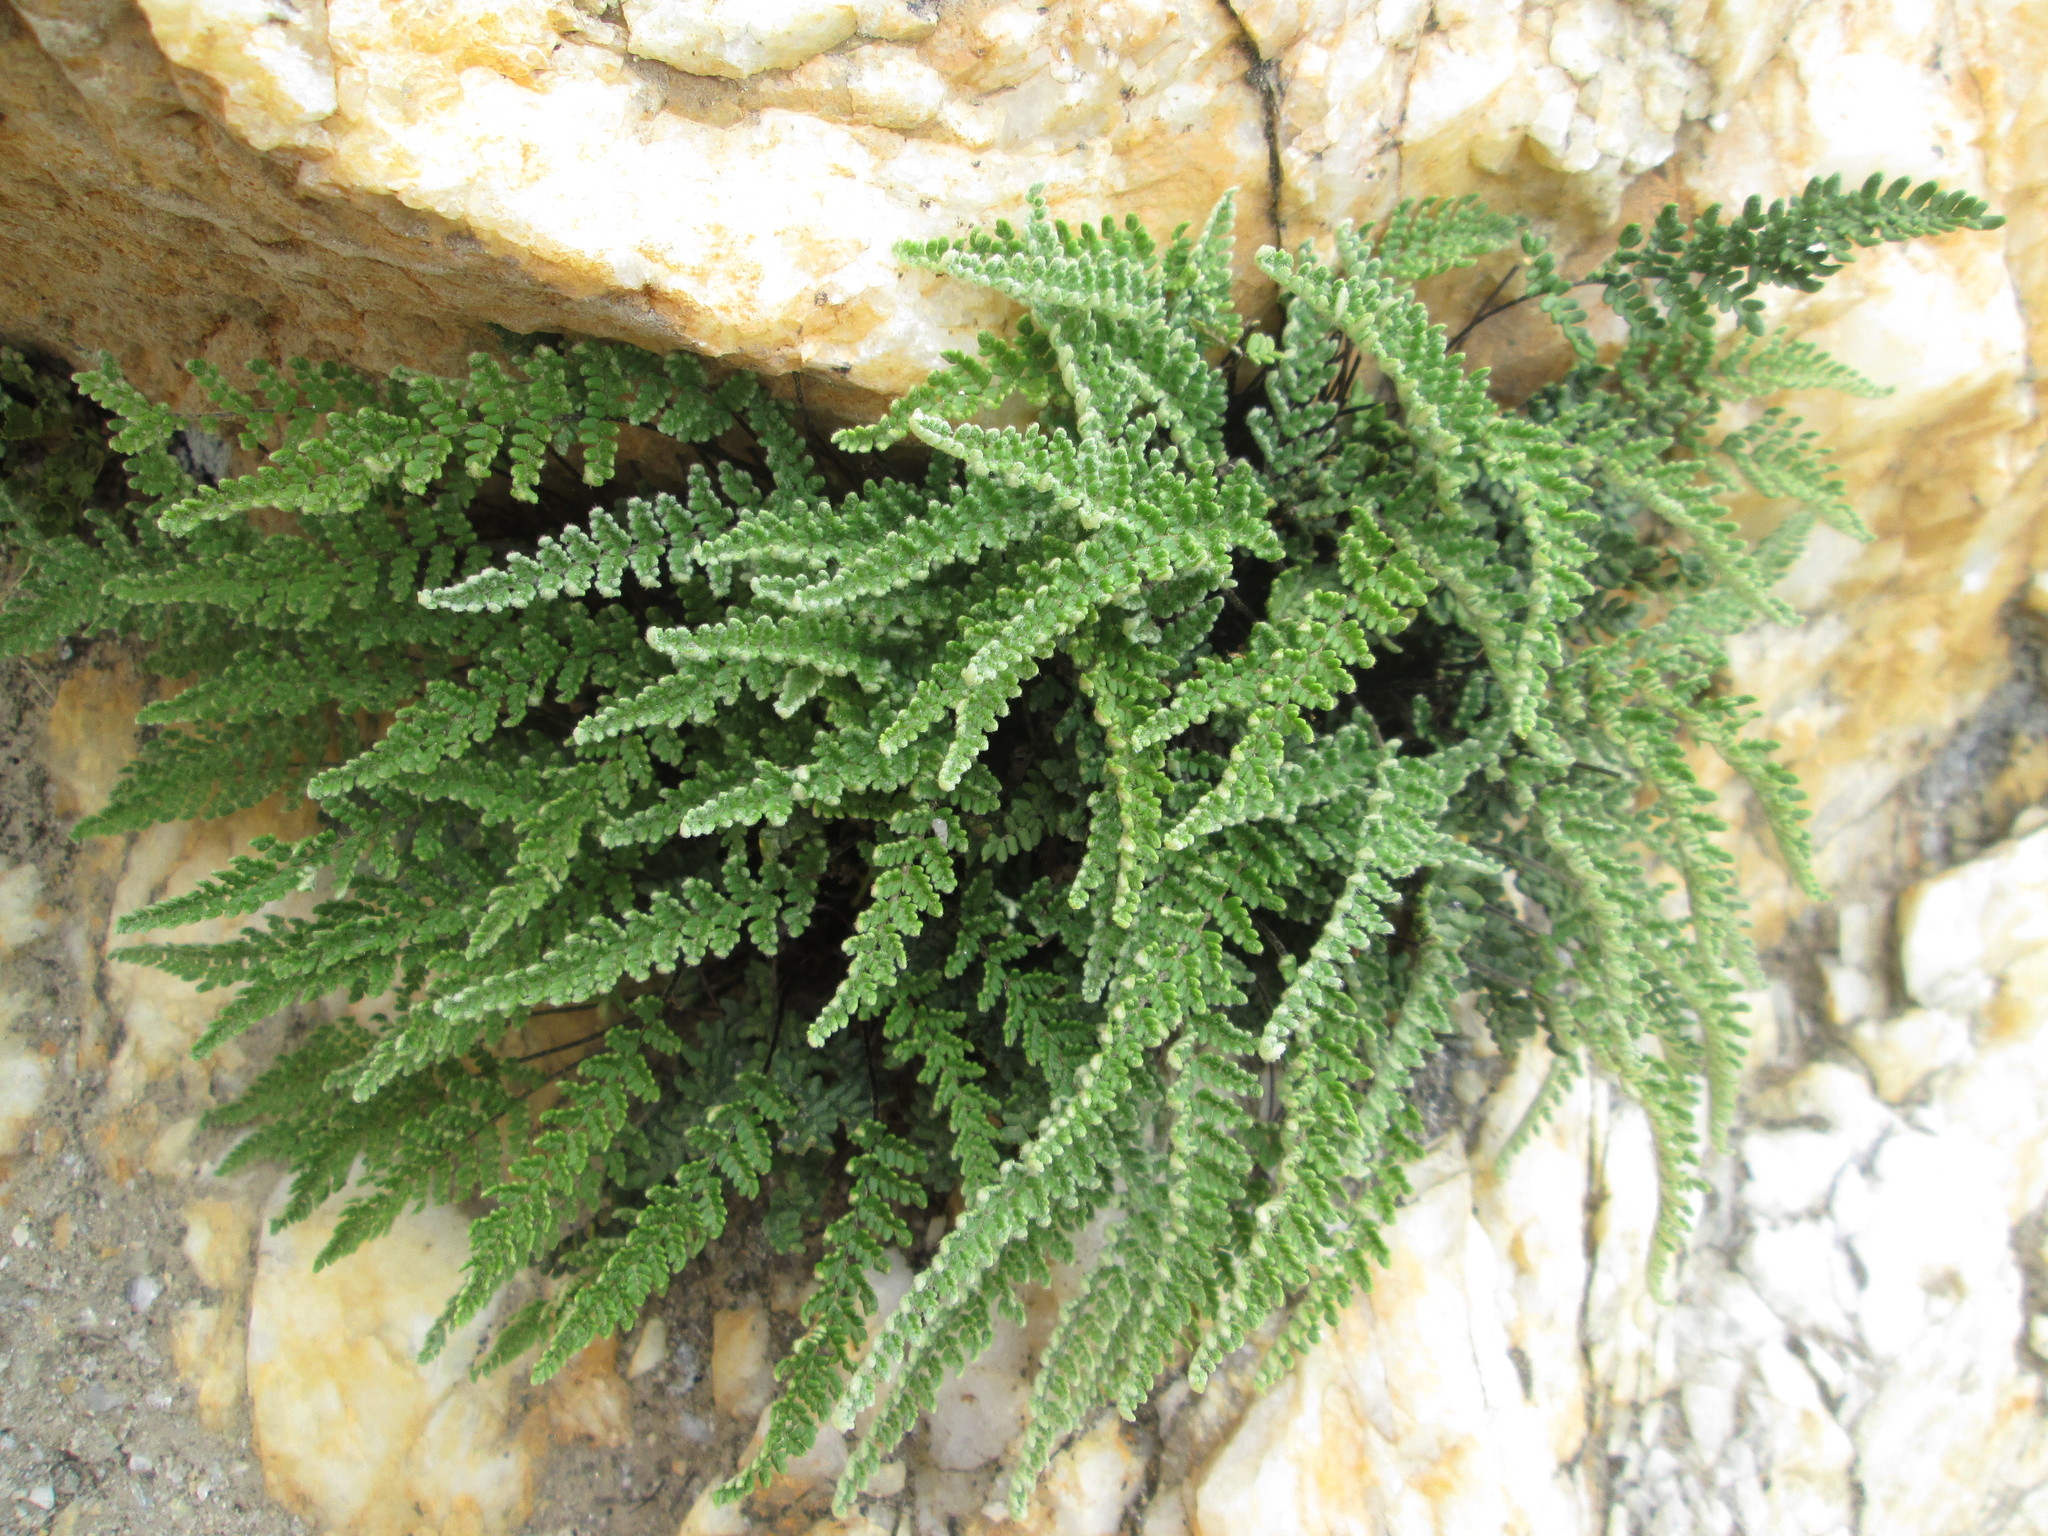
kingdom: Plantae
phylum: Tracheophyta
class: Polypodiopsida
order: Polypodiales
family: Pteridaceae
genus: Myriopteris
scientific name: Myriopteris gracillima
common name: Lace fern
